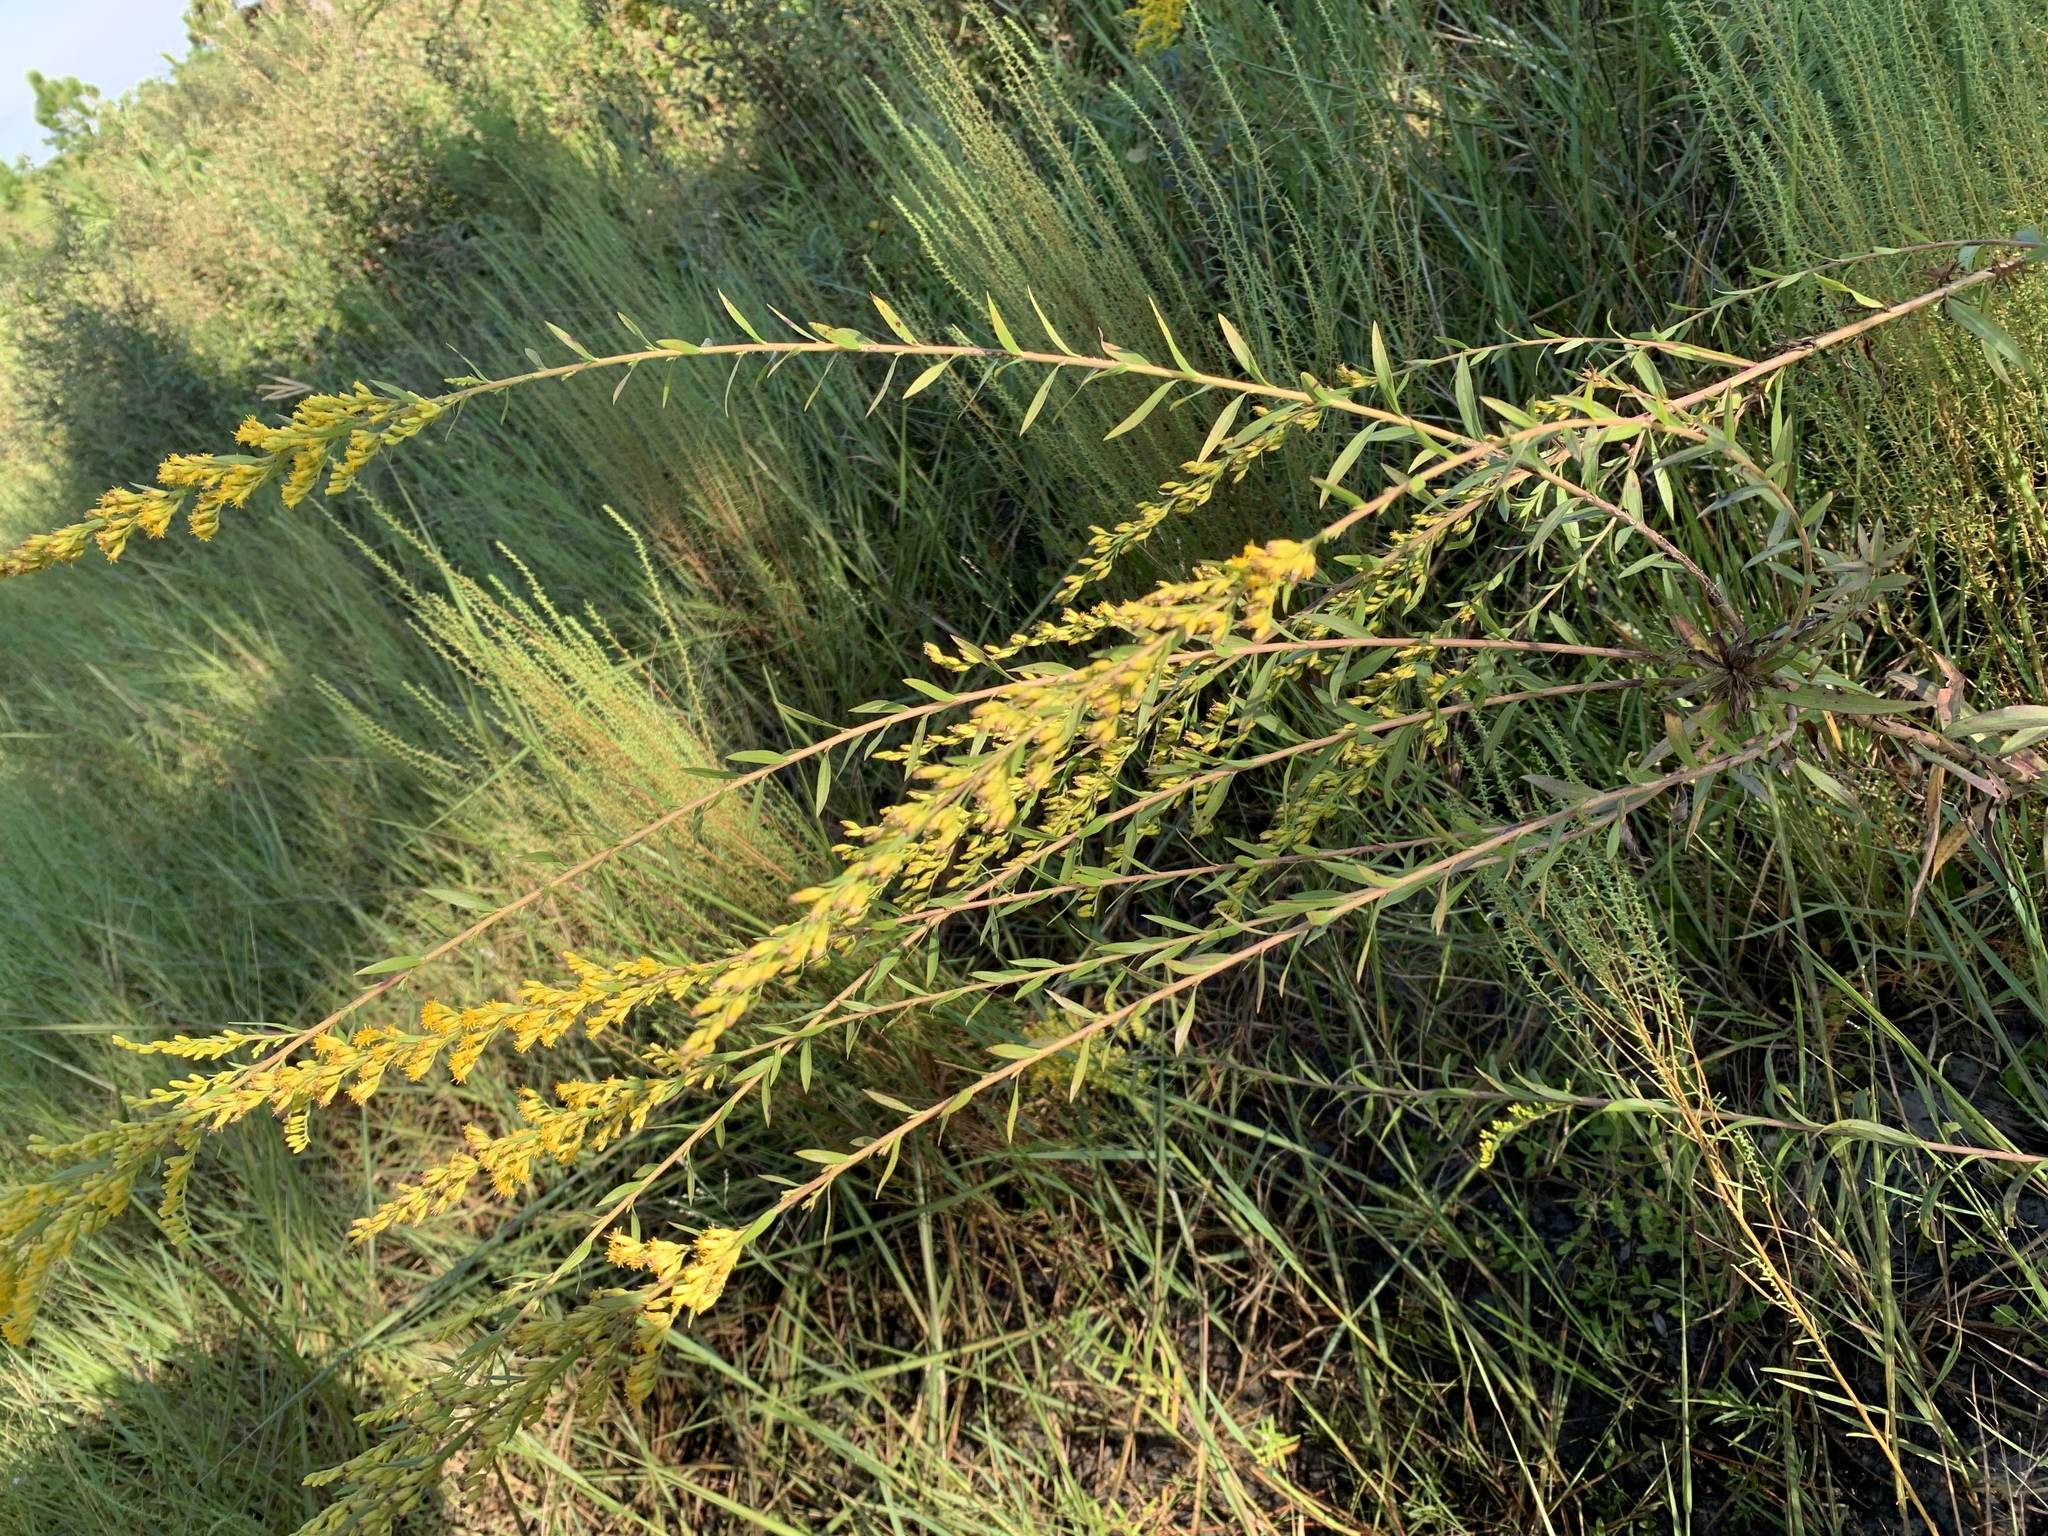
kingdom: Plantae
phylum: Tracheophyta
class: Magnoliopsida
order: Asterales
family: Asteraceae
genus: Solidago
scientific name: Solidago leavenworthii
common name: Leavenworth's goldenrod
